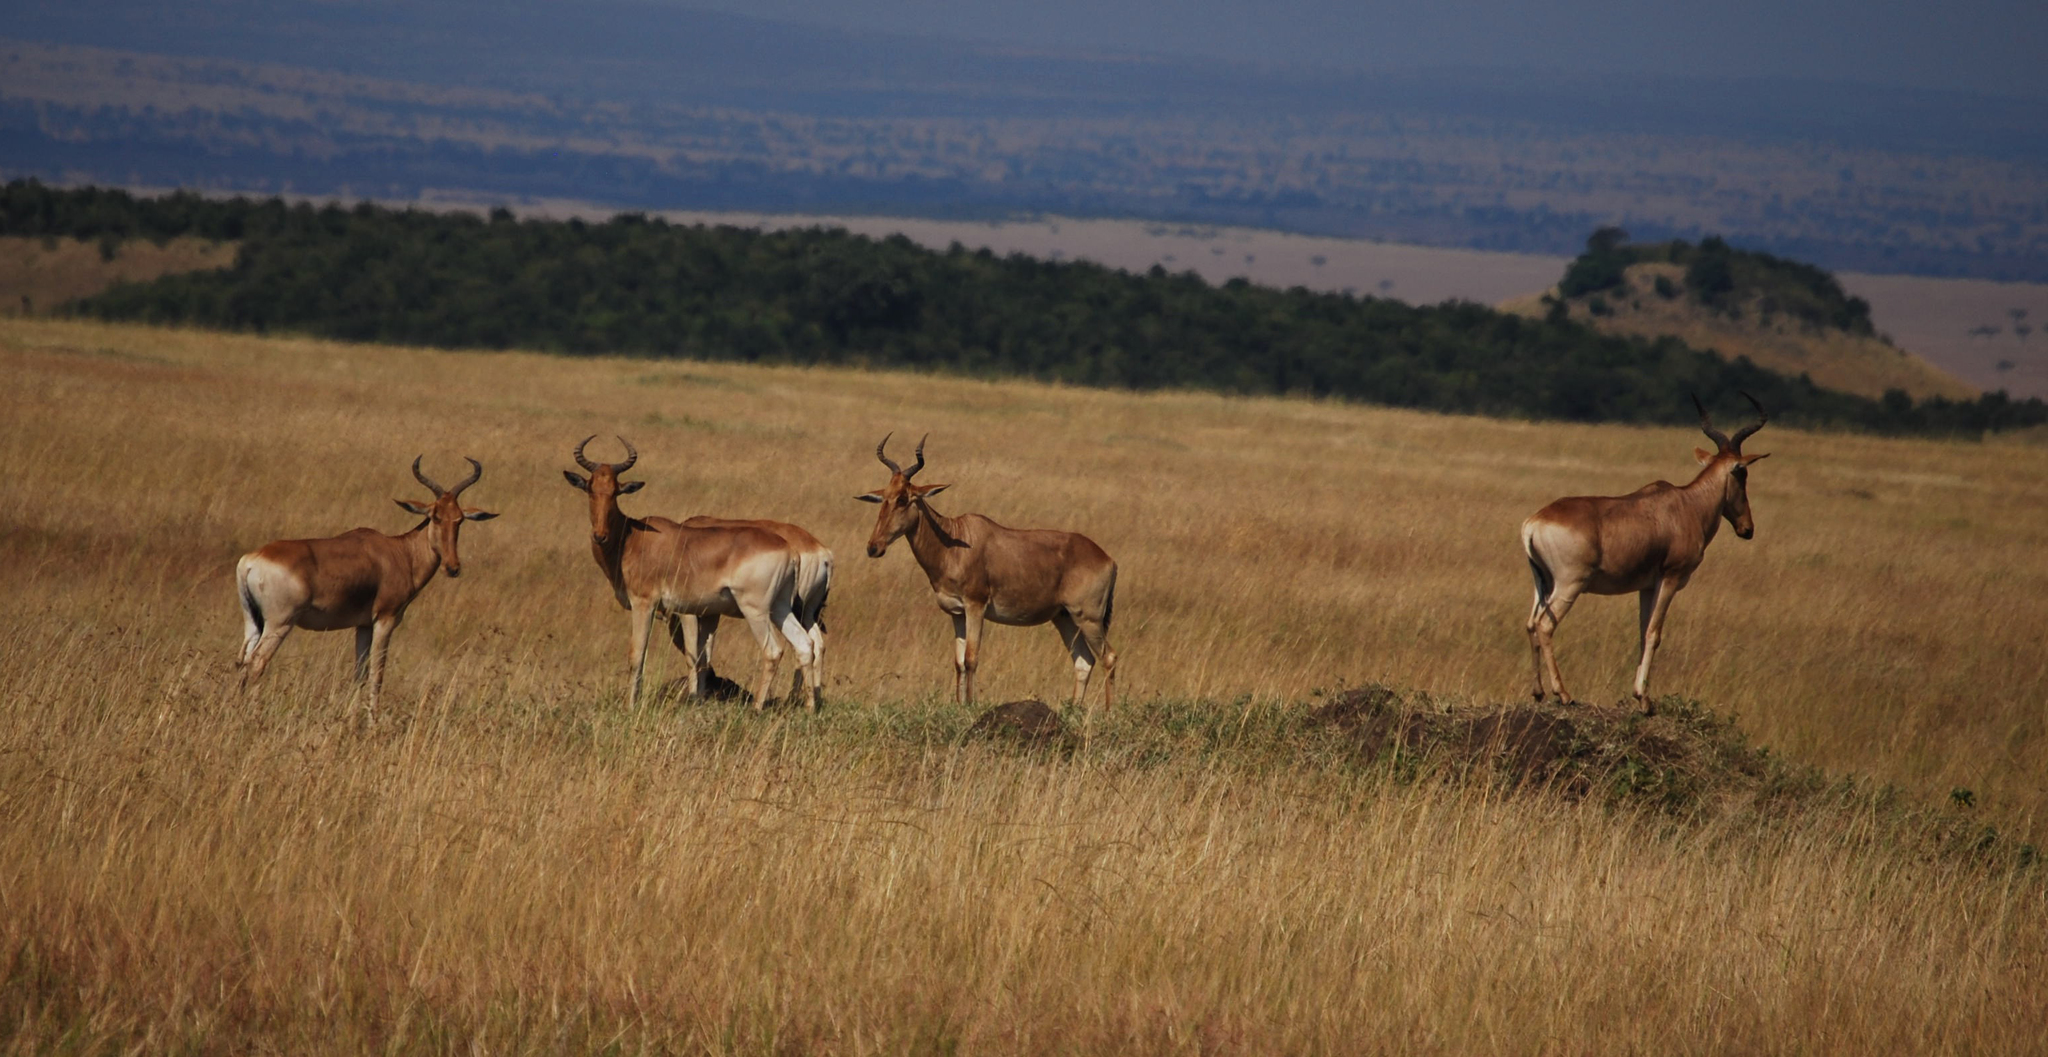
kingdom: Animalia
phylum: Chordata
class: Mammalia
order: Artiodactyla
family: Bovidae
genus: Alcelaphus
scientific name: Alcelaphus buselaphus
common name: Hartebeest
